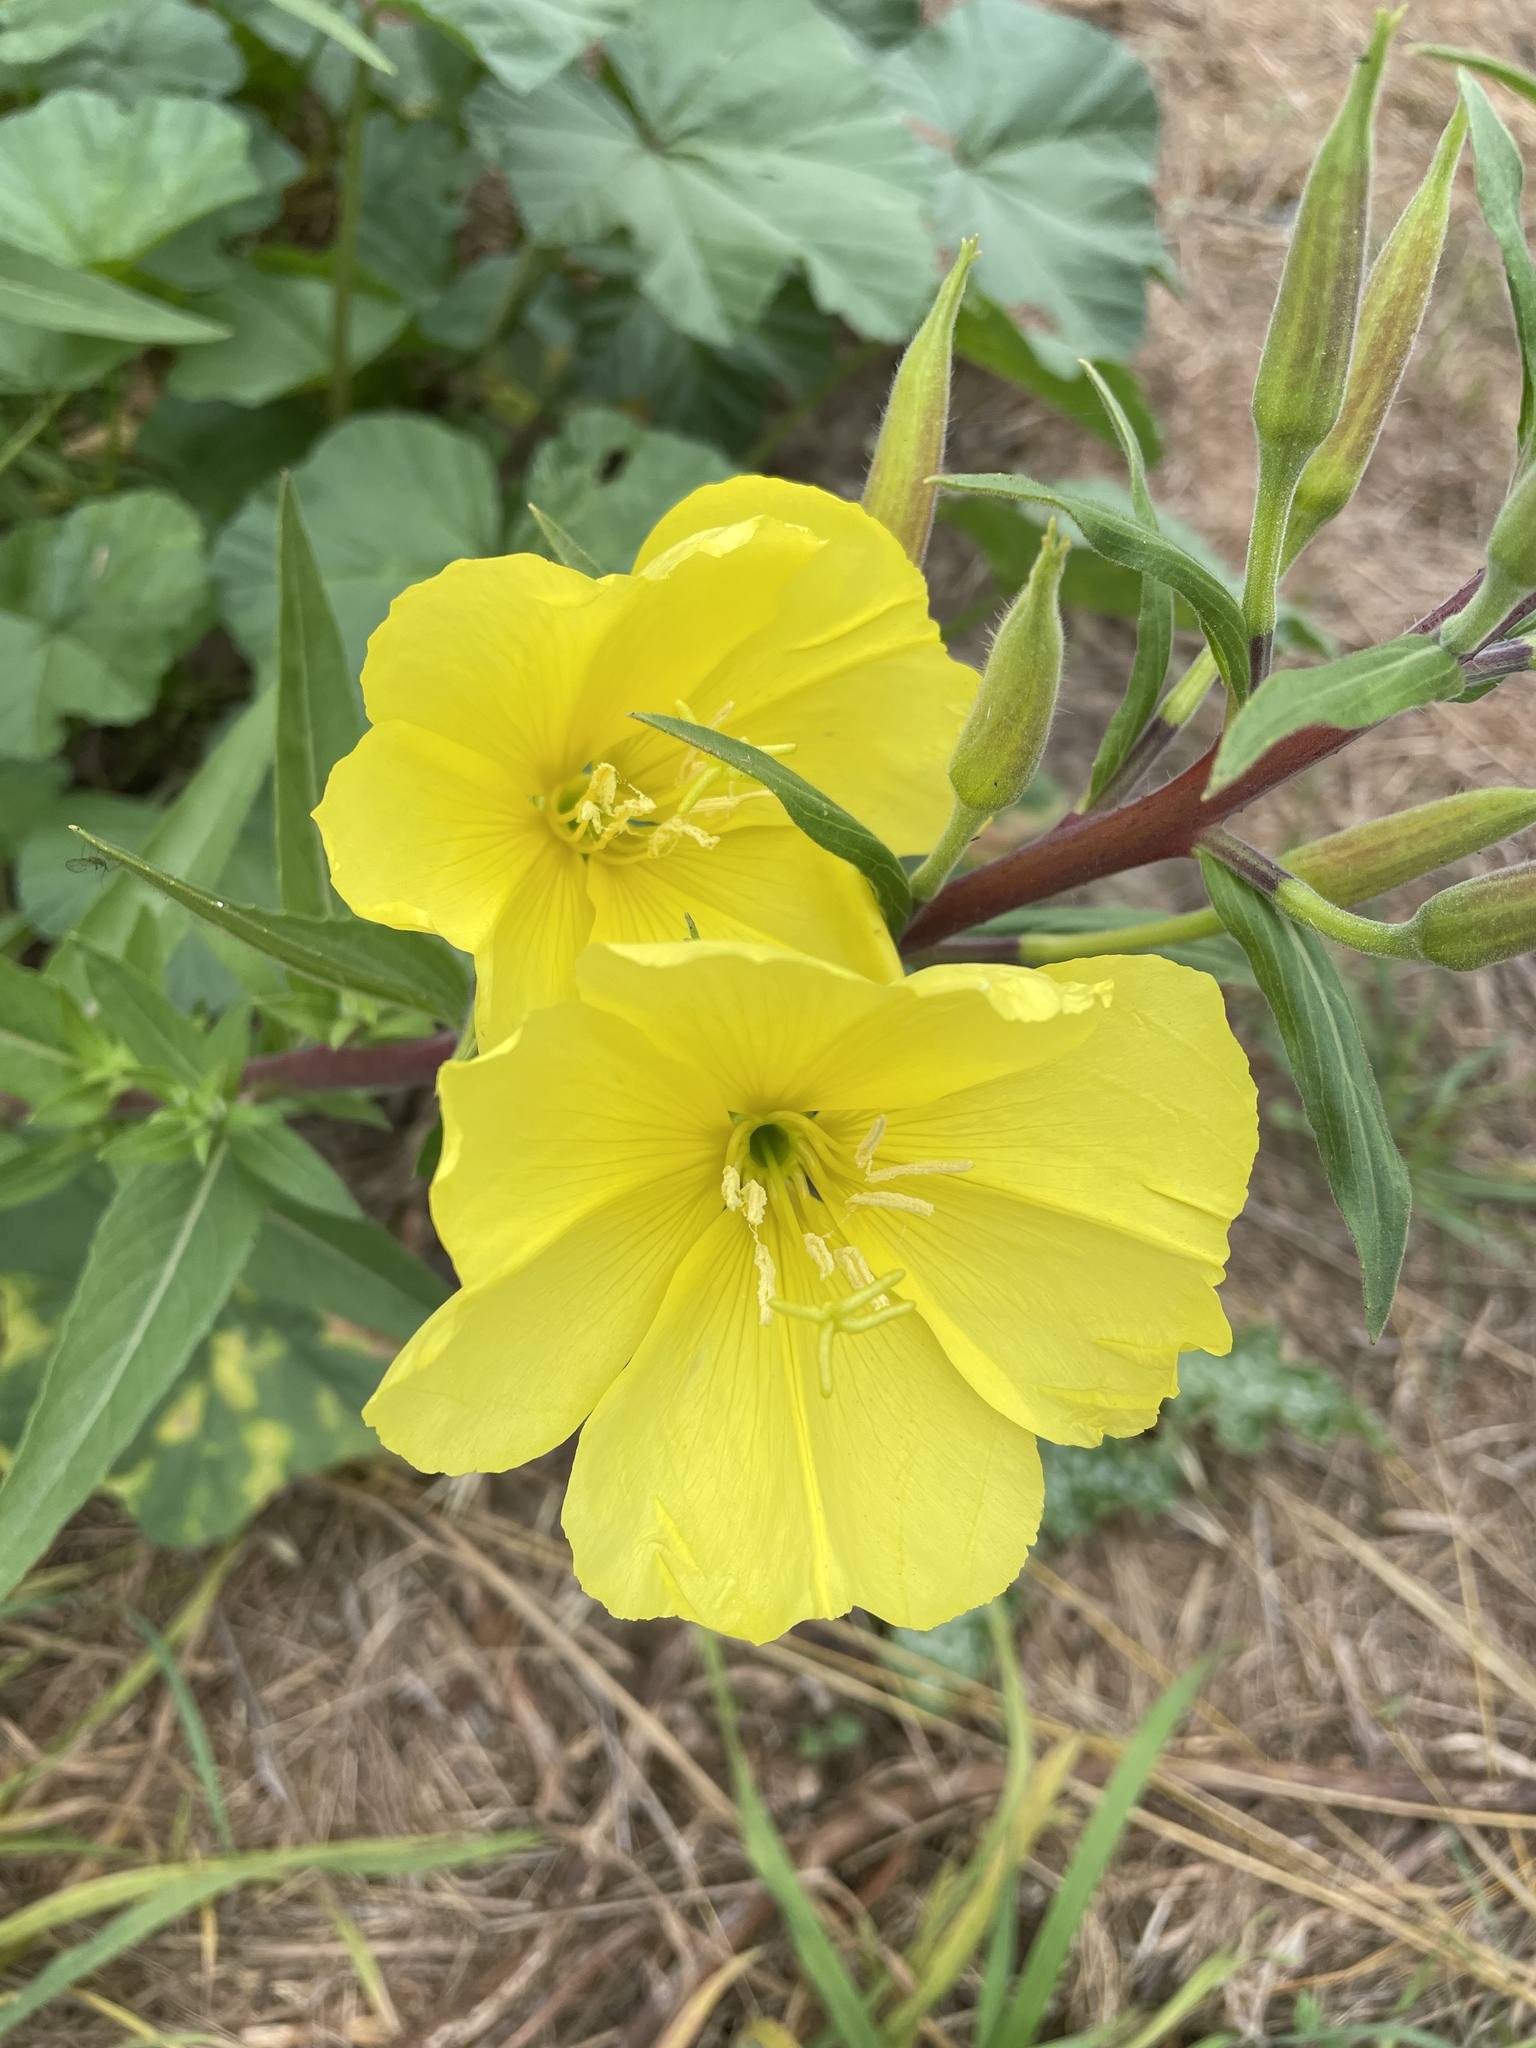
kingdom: Plantae
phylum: Tracheophyta
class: Magnoliopsida
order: Myrtales
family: Onagraceae
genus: Oenothera
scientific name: Oenothera elata
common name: Hooker's evening-primrose
